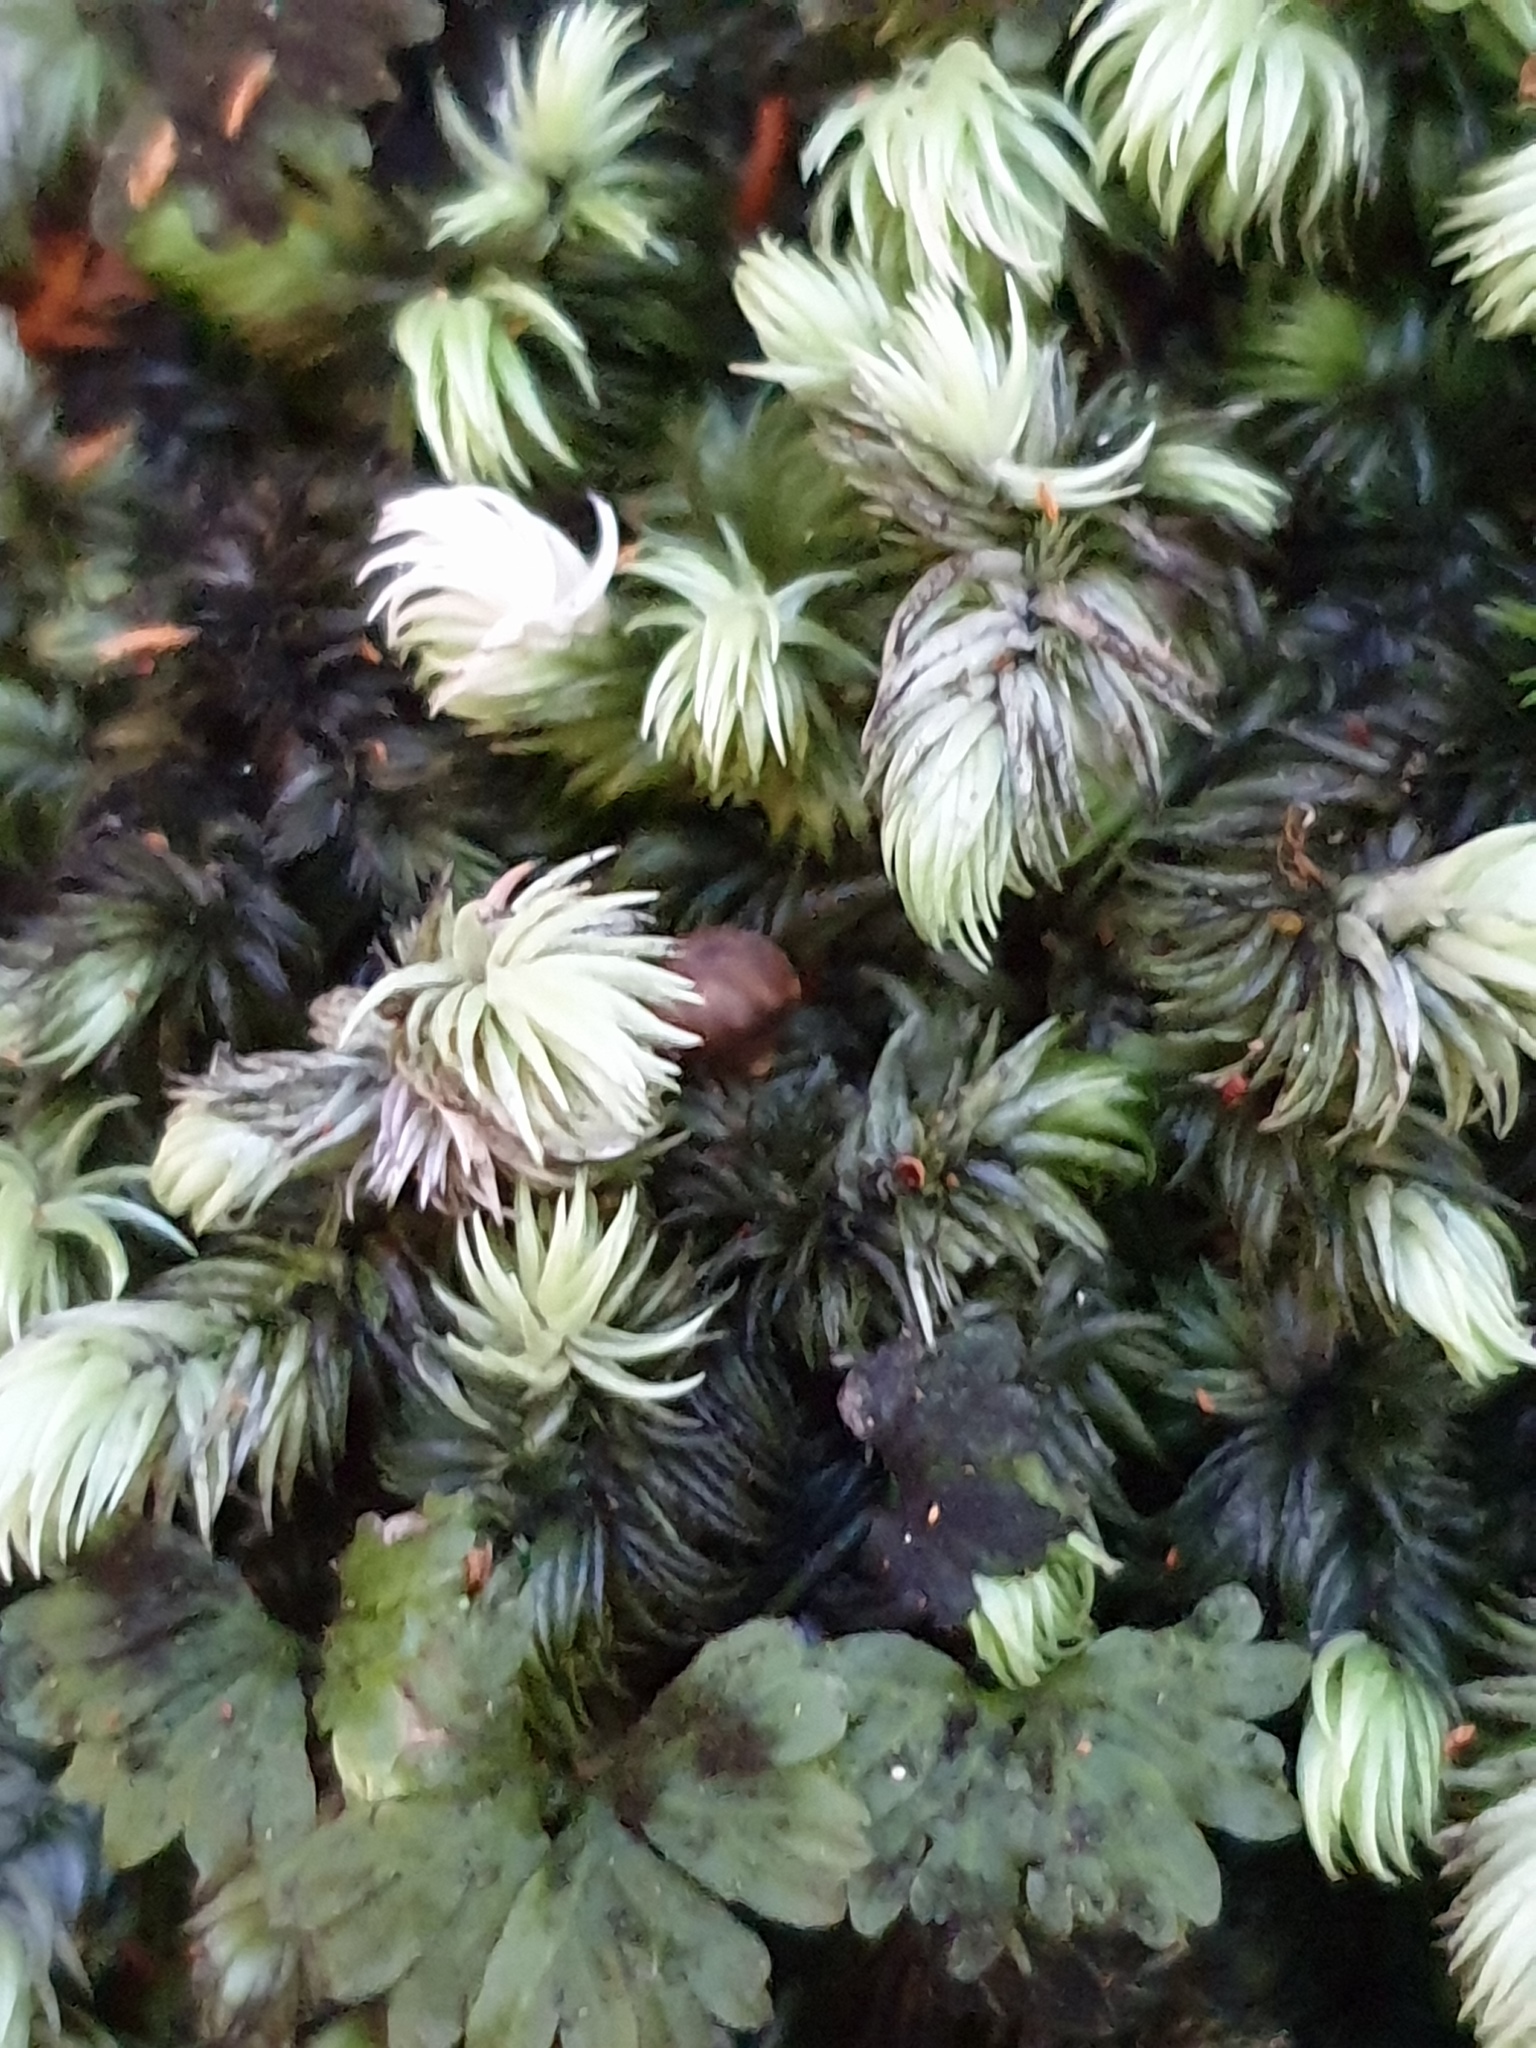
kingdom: Plantae
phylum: Bryophyta
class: Bryopsida
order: Dicranales
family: Leucobryaceae
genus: Leucobryum
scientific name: Leucobryum javense
